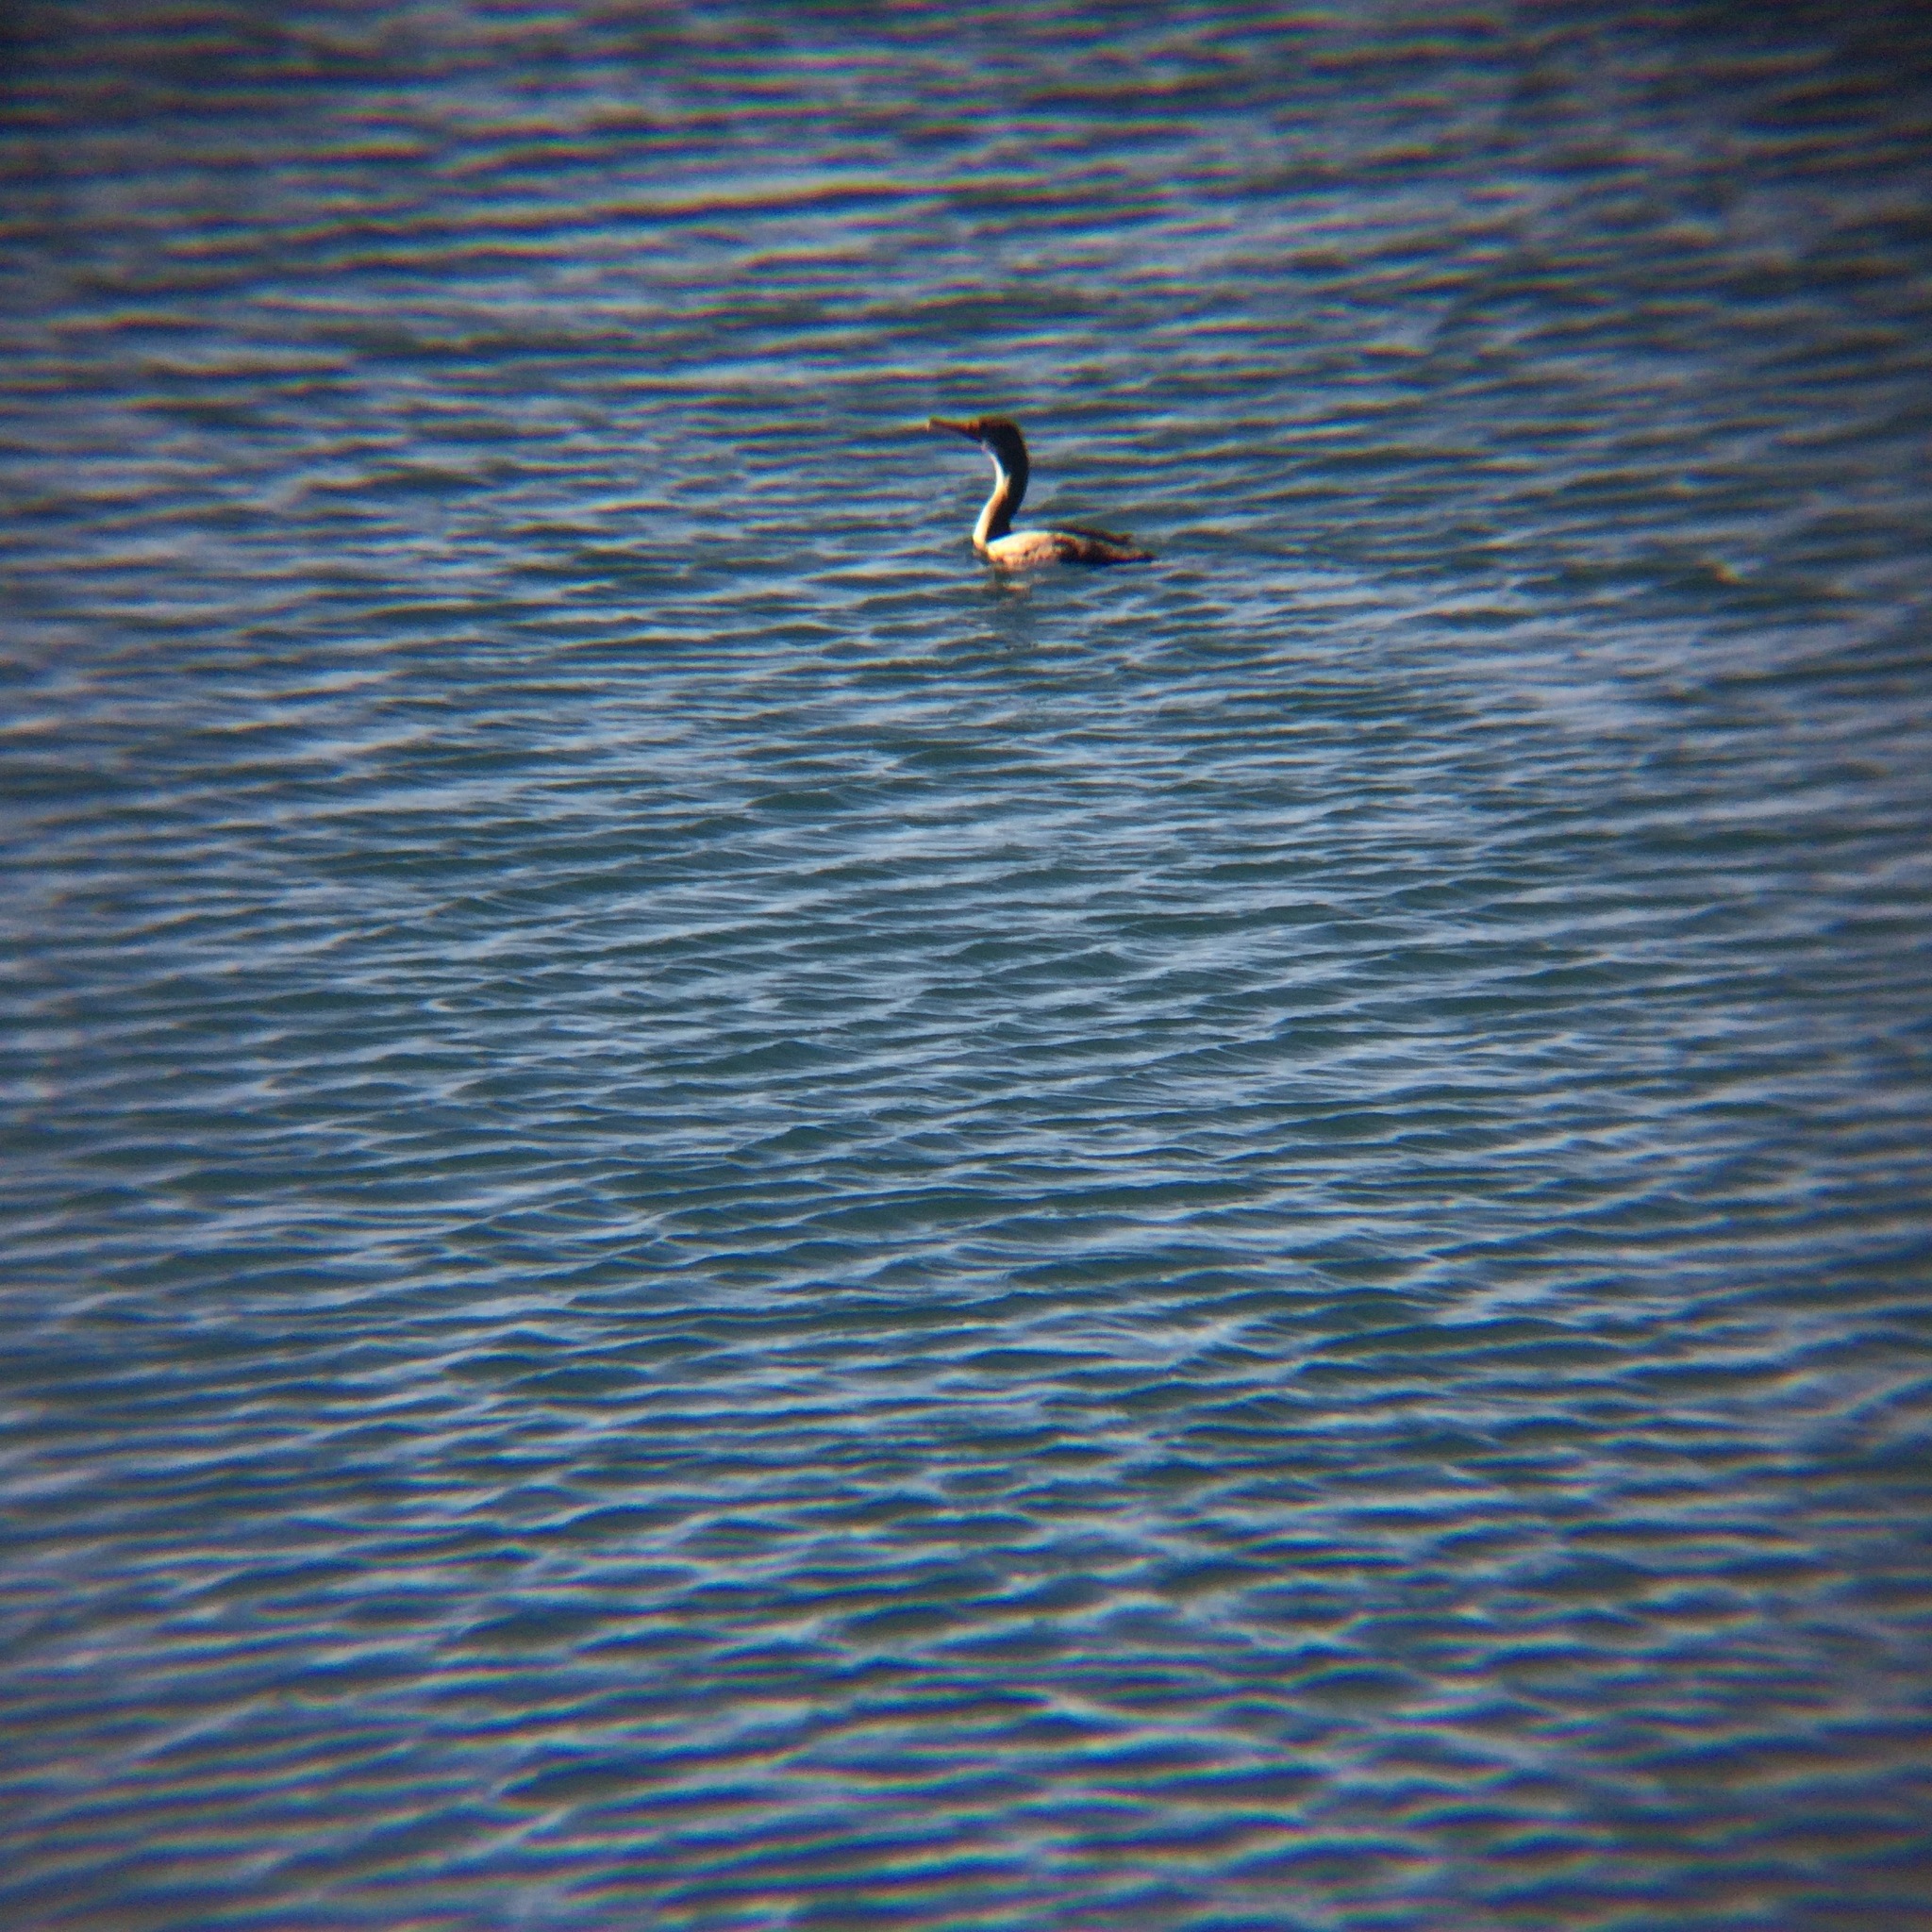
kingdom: Animalia
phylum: Chordata
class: Aves
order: Suliformes
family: Phalacrocoracidae
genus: Phalacrocorax
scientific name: Phalacrocorax auritus
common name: Double-crested cormorant
